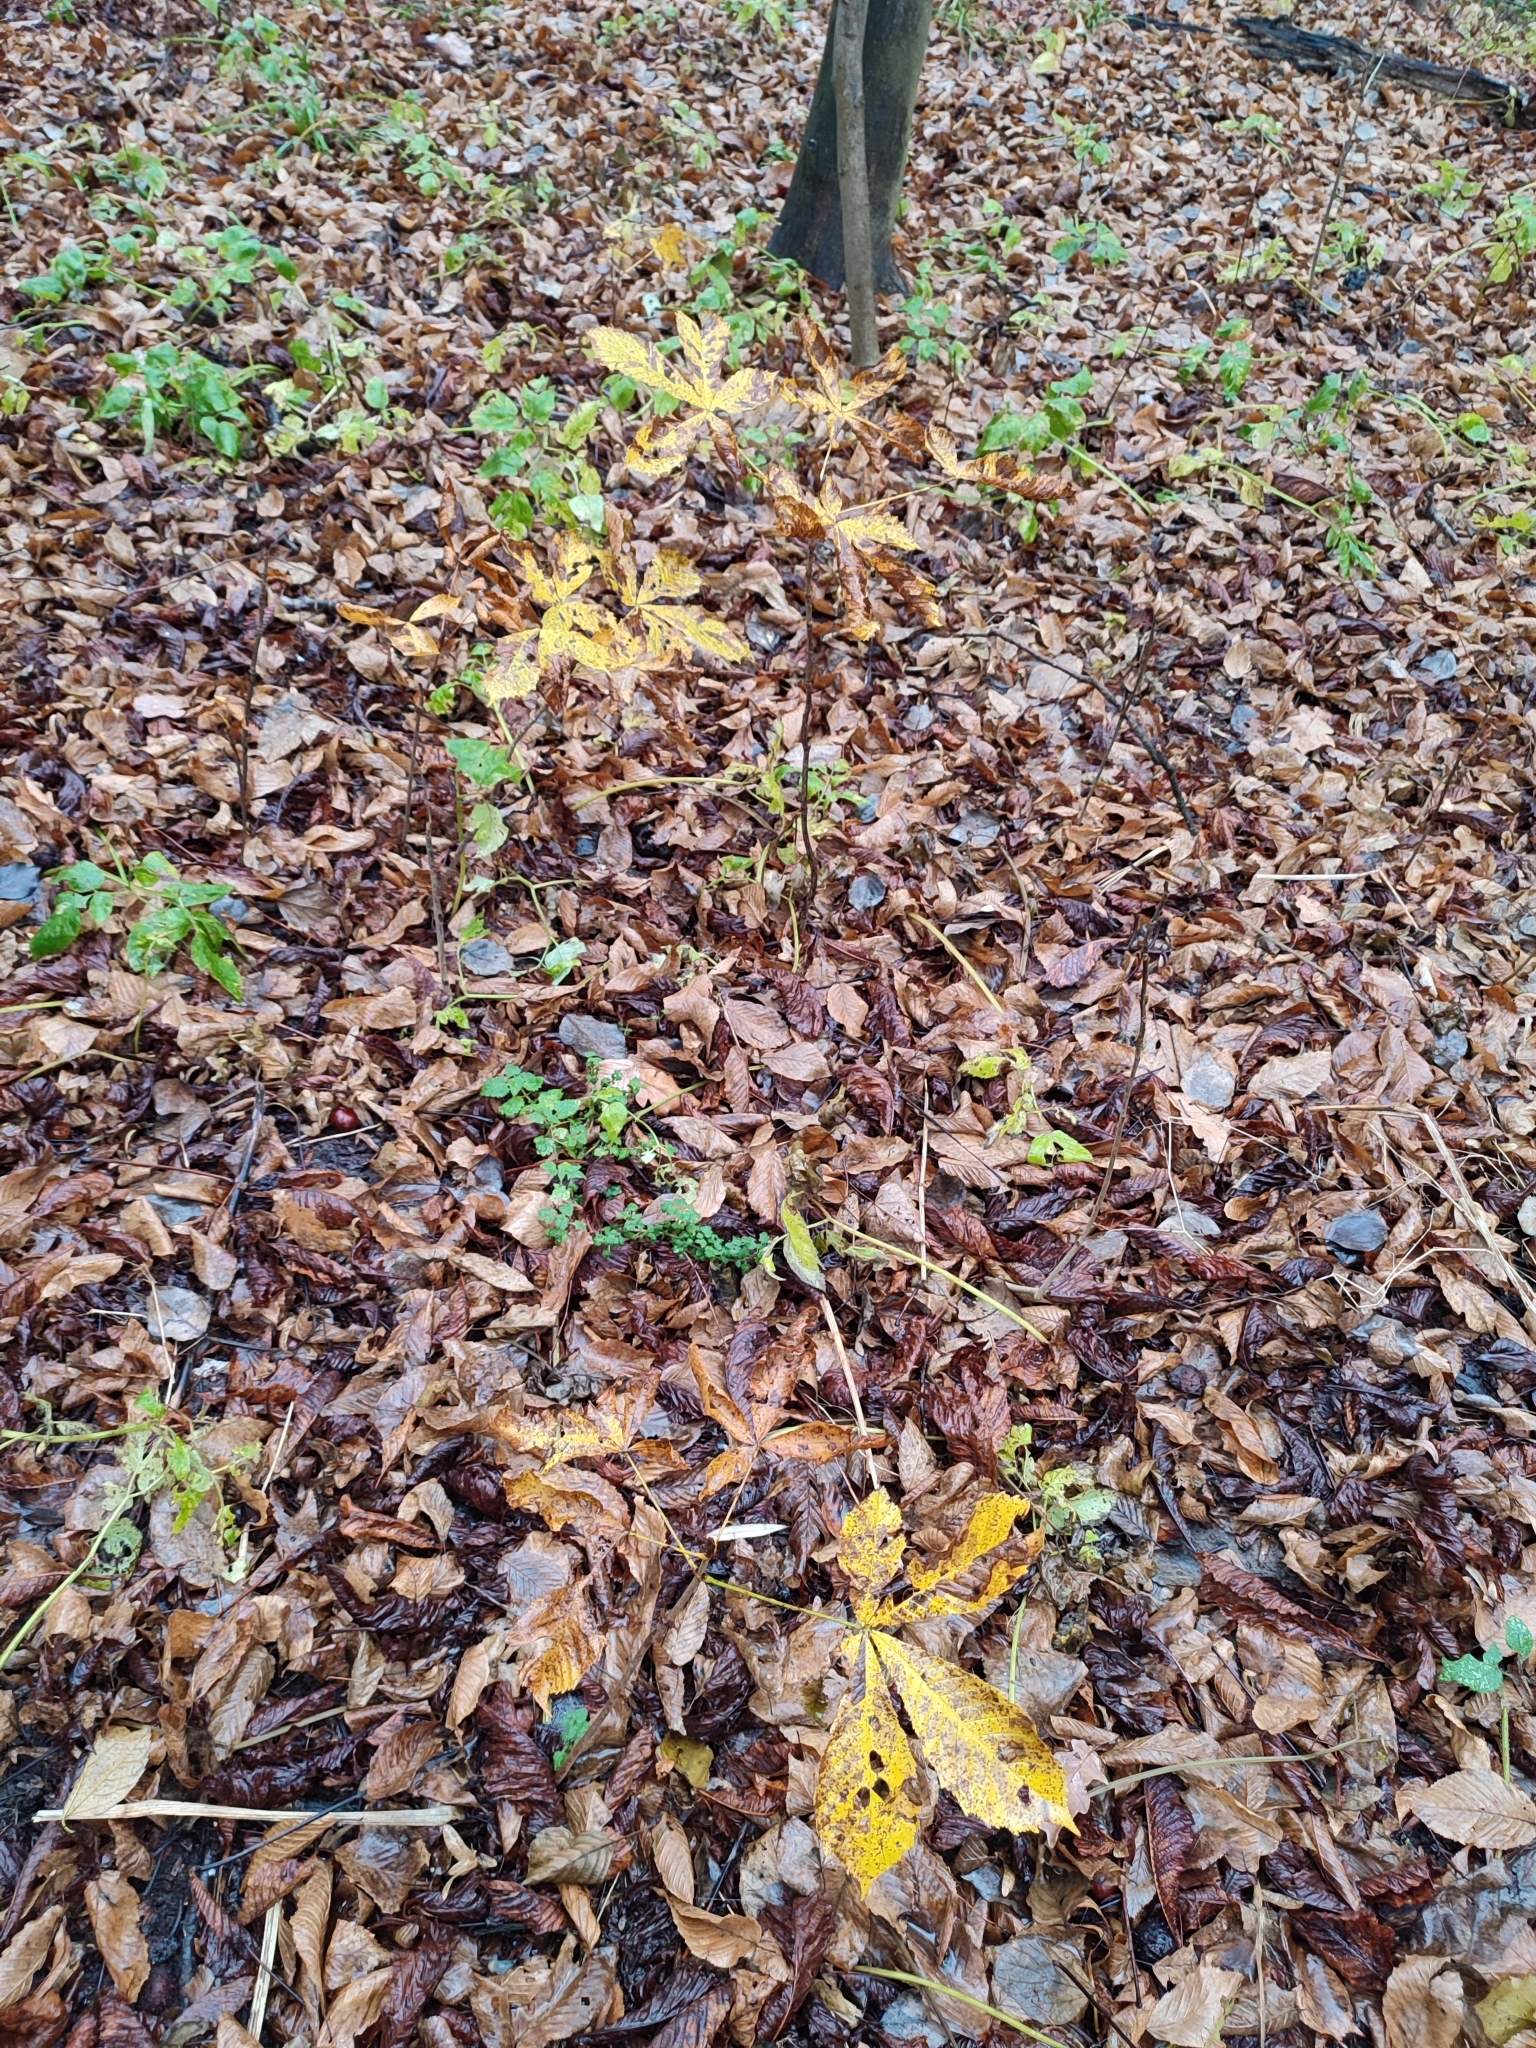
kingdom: Plantae
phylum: Tracheophyta
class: Magnoliopsida
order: Sapindales
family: Sapindaceae
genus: Aesculus
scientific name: Aesculus hippocastanum
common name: Horse-chestnut
